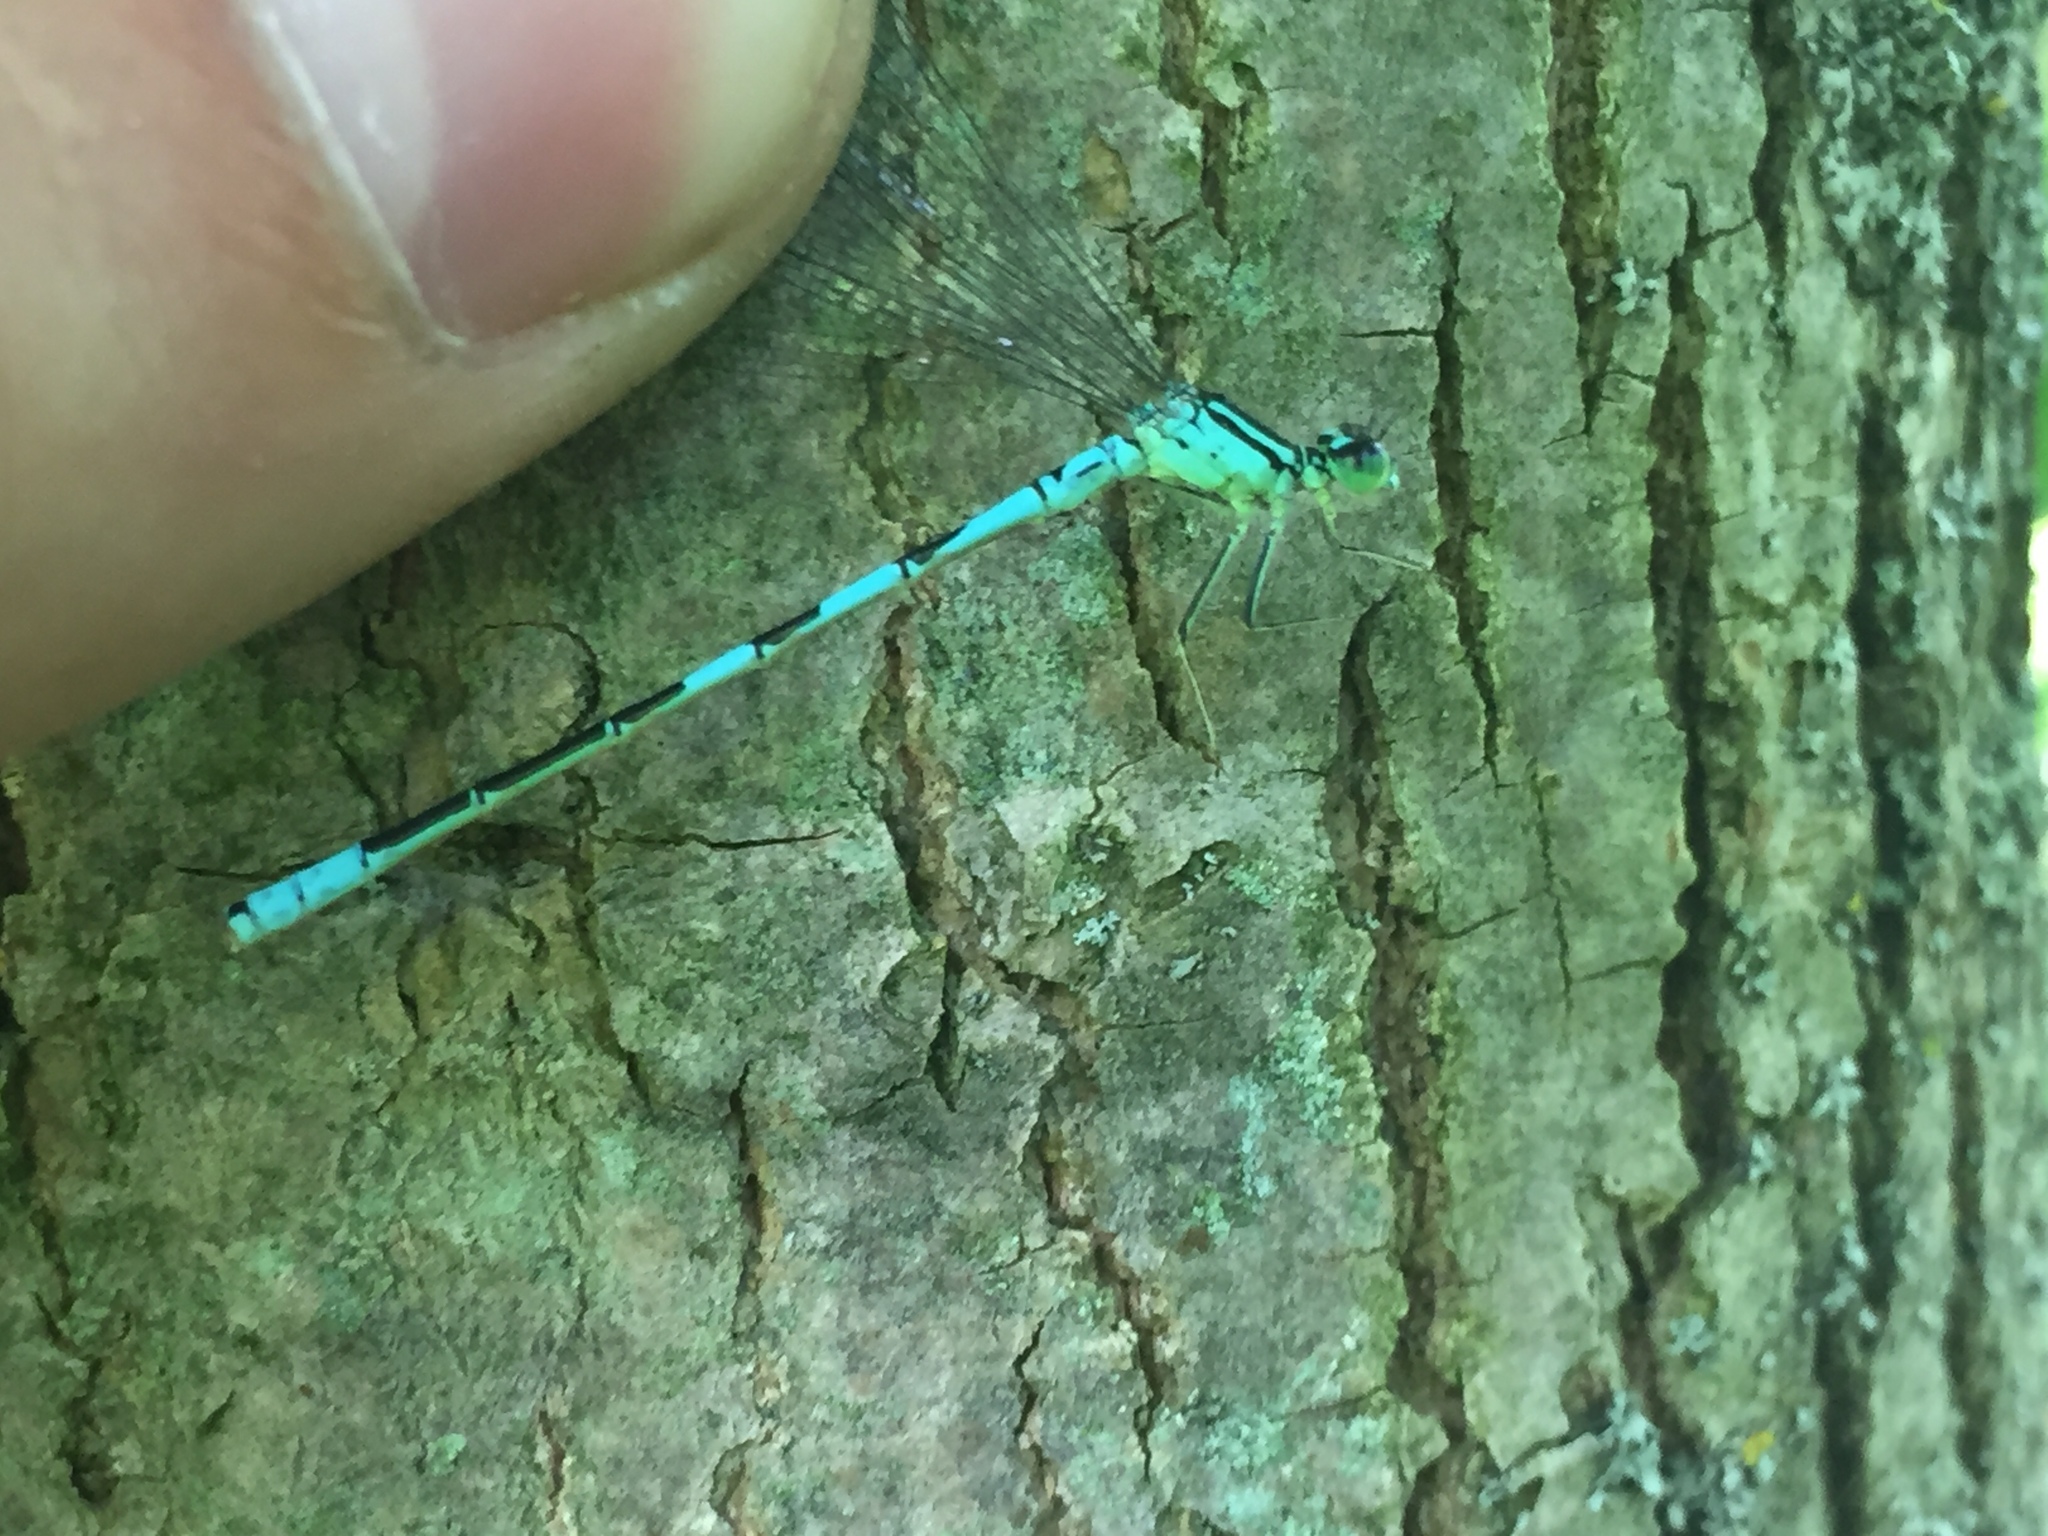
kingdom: Animalia
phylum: Arthropoda
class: Insecta
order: Odonata
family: Coenagrionidae
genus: Coenagrion
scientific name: Coenagrion resolutum
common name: Taiga bluet
